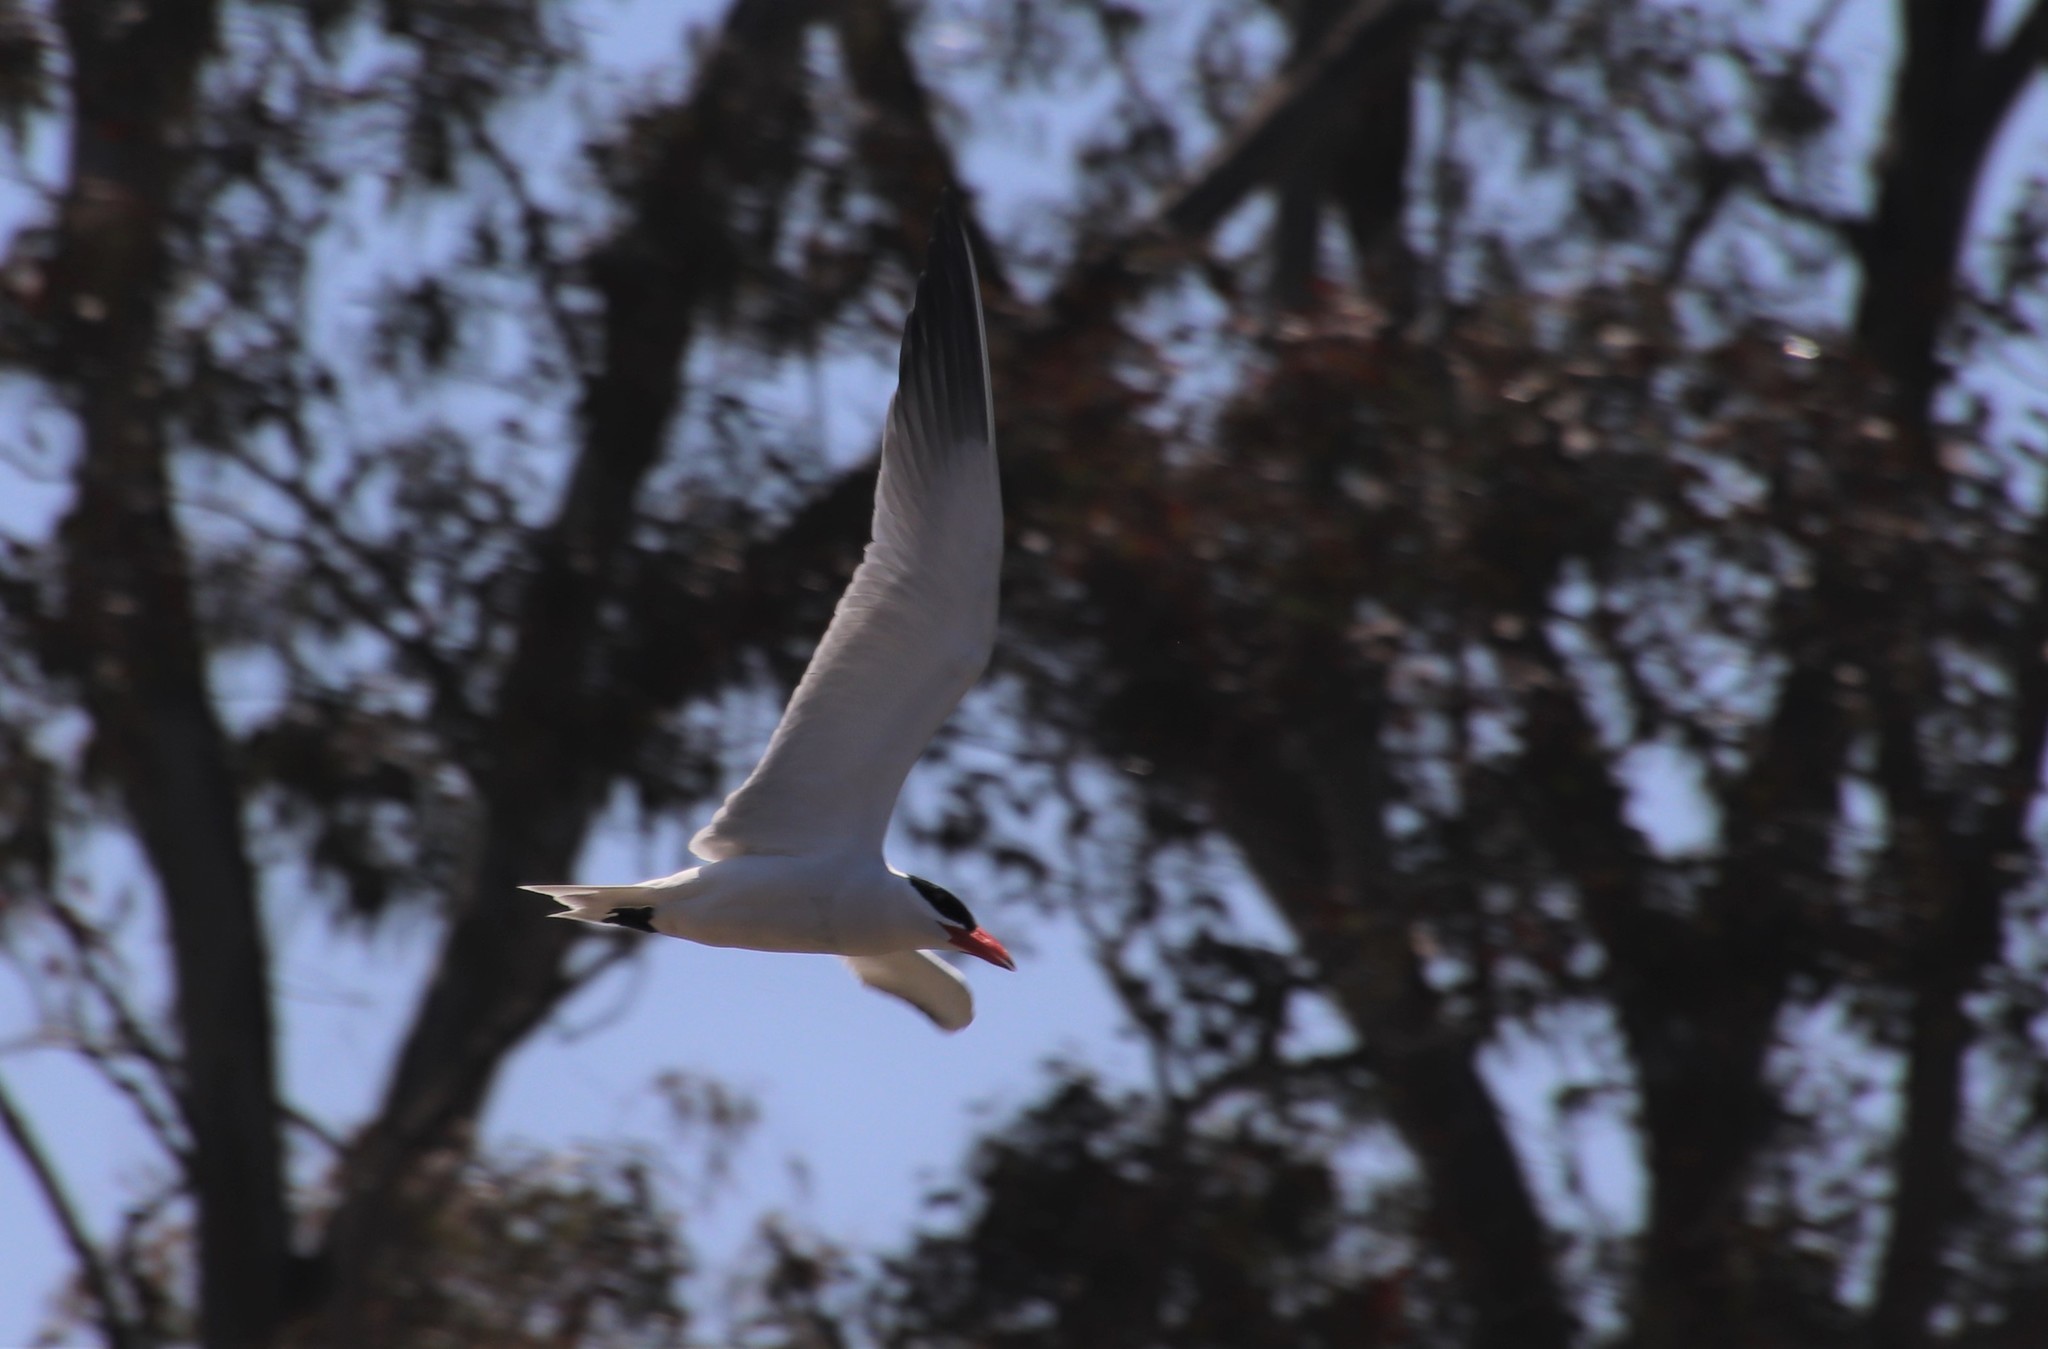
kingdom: Animalia
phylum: Chordata
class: Aves
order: Charadriiformes
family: Laridae
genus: Hydroprogne
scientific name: Hydroprogne caspia
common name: Caspian tern
